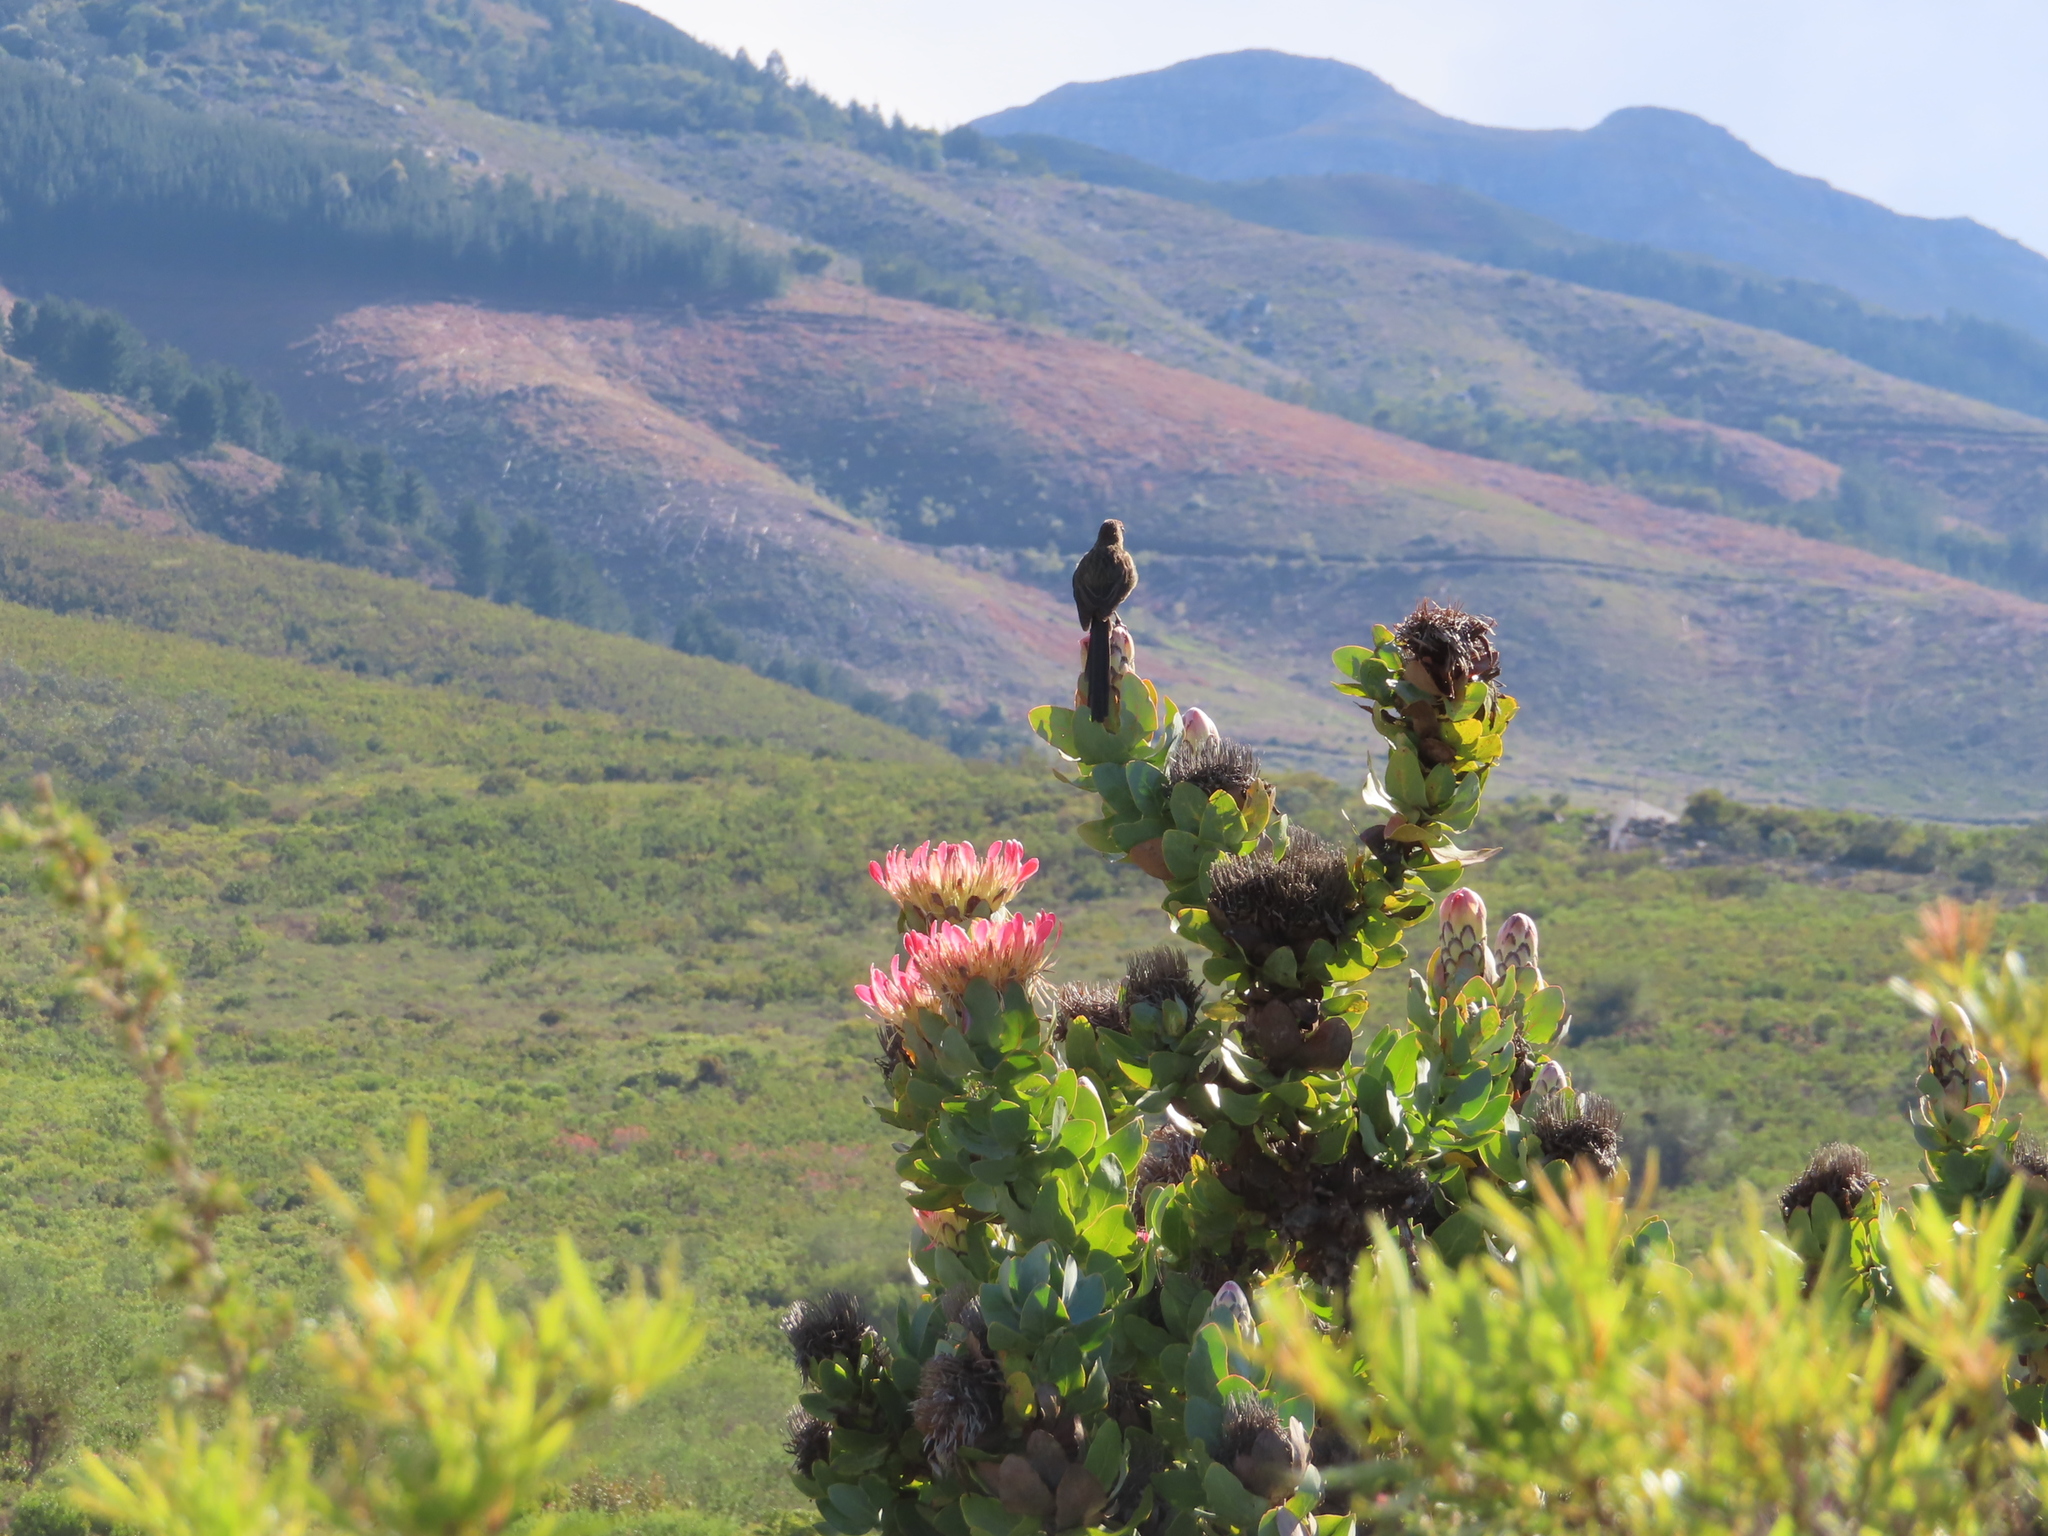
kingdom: Animalia
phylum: Chordata
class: Aves
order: Passeriformes
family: Promeropidae
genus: Promerops
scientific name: Promerops cafer
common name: Cape sugarbird
